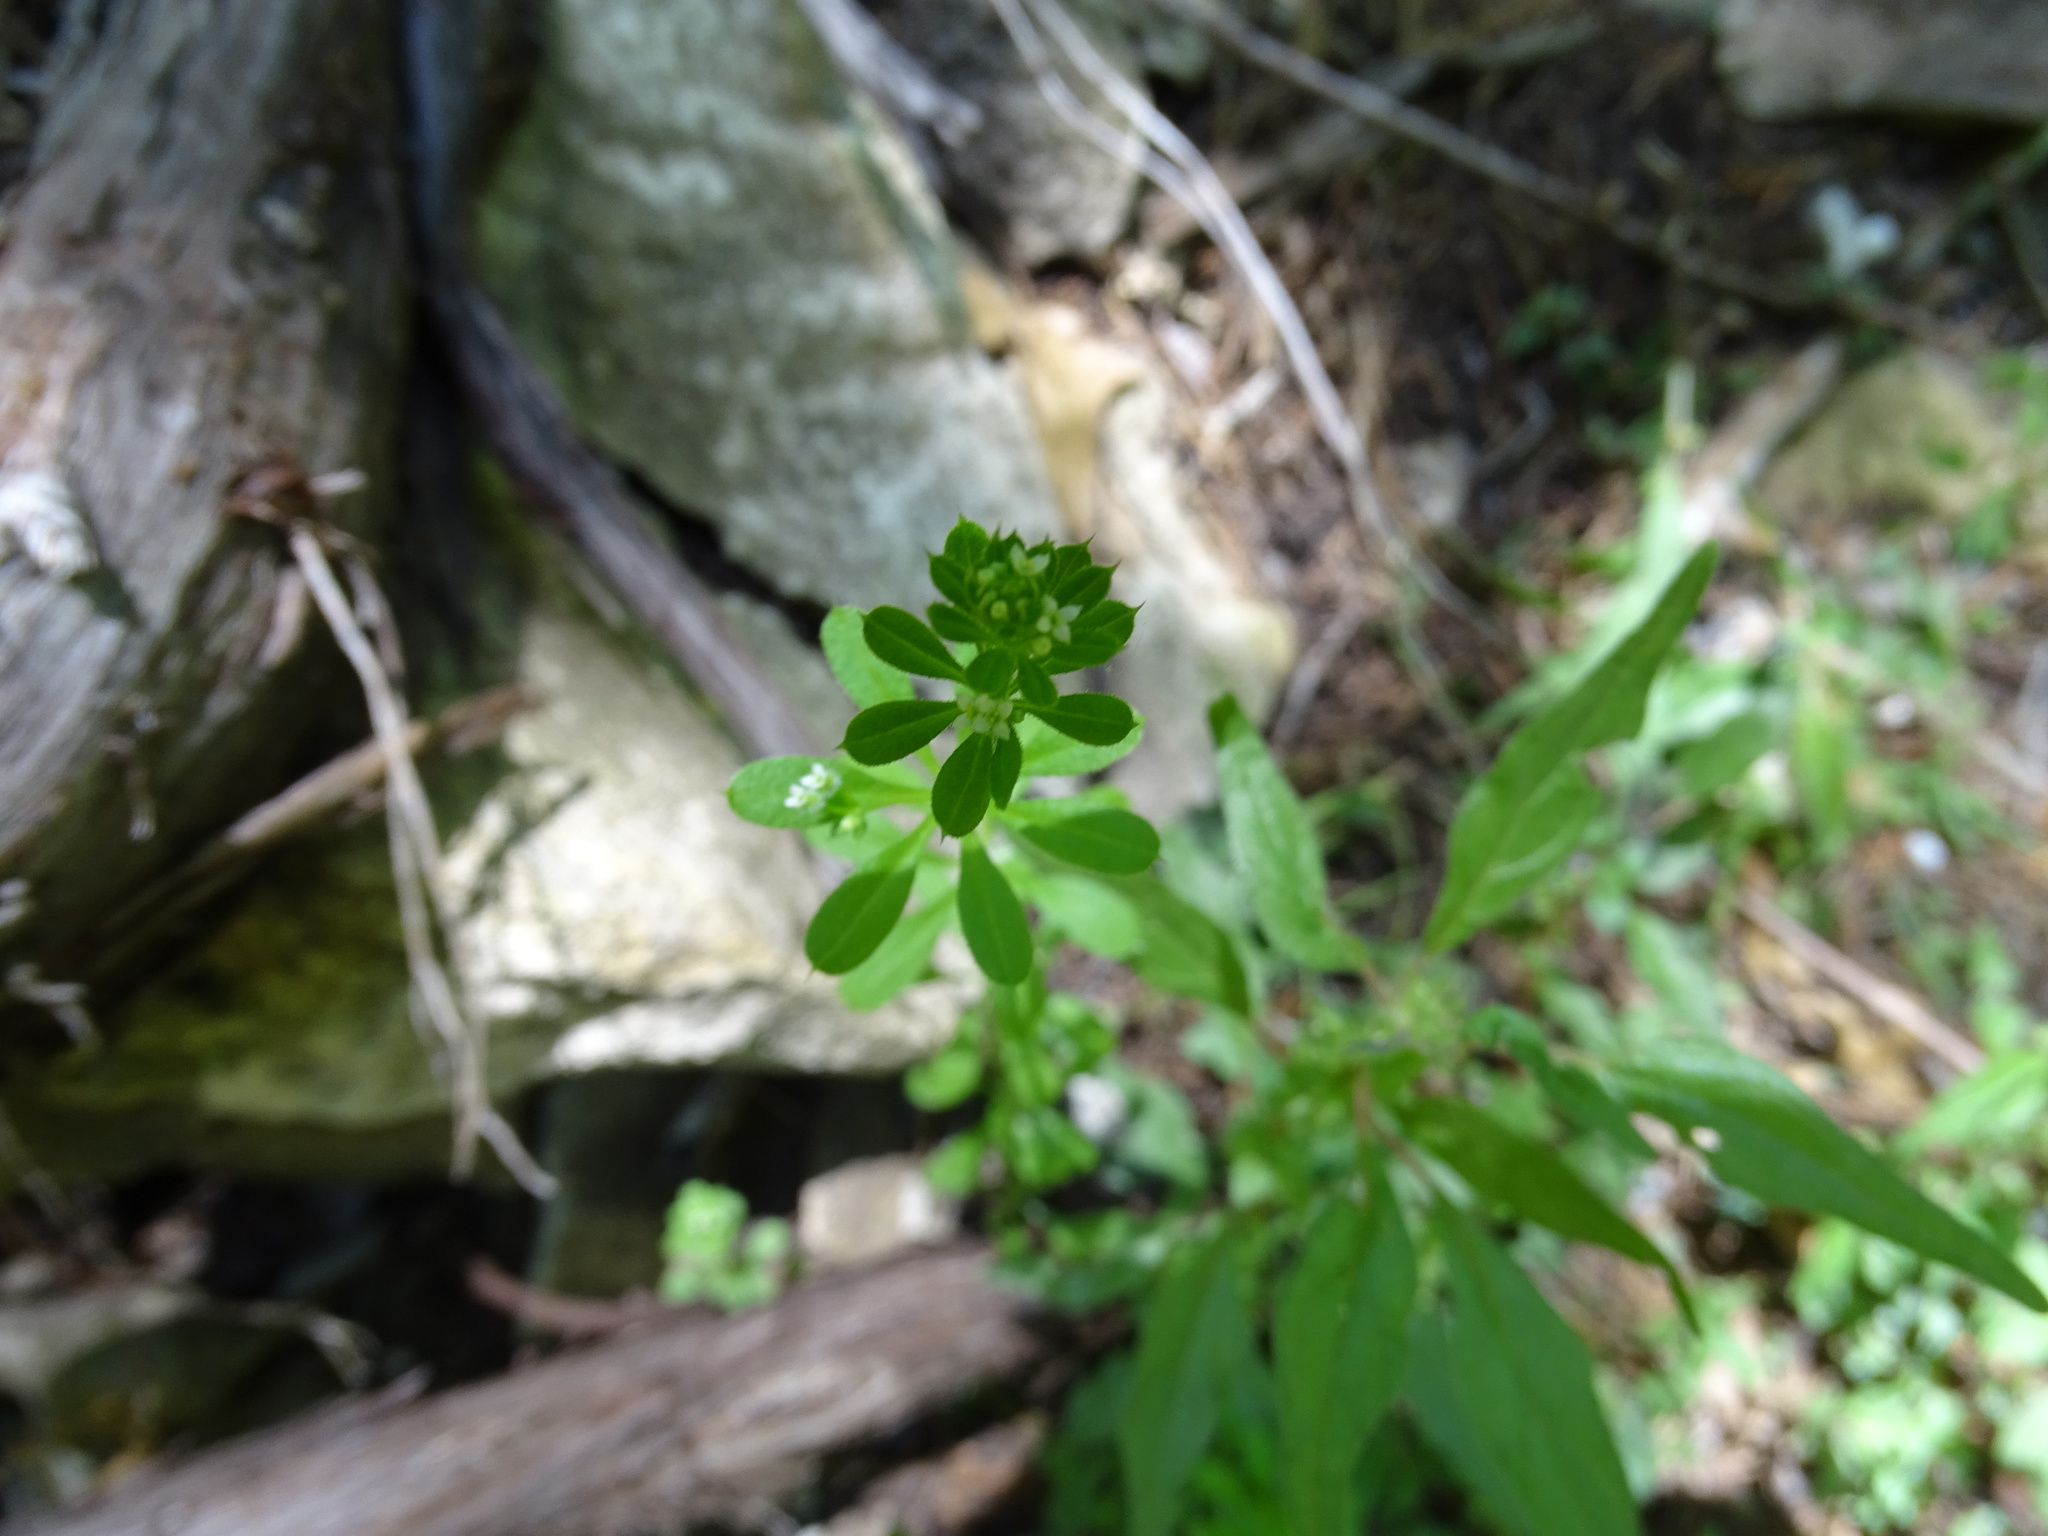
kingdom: Plantae
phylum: Tracheophyta
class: Magnoliopsida
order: Gentianales
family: Rubiaceae
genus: Galium
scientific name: Galium aparine
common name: Cleavers
